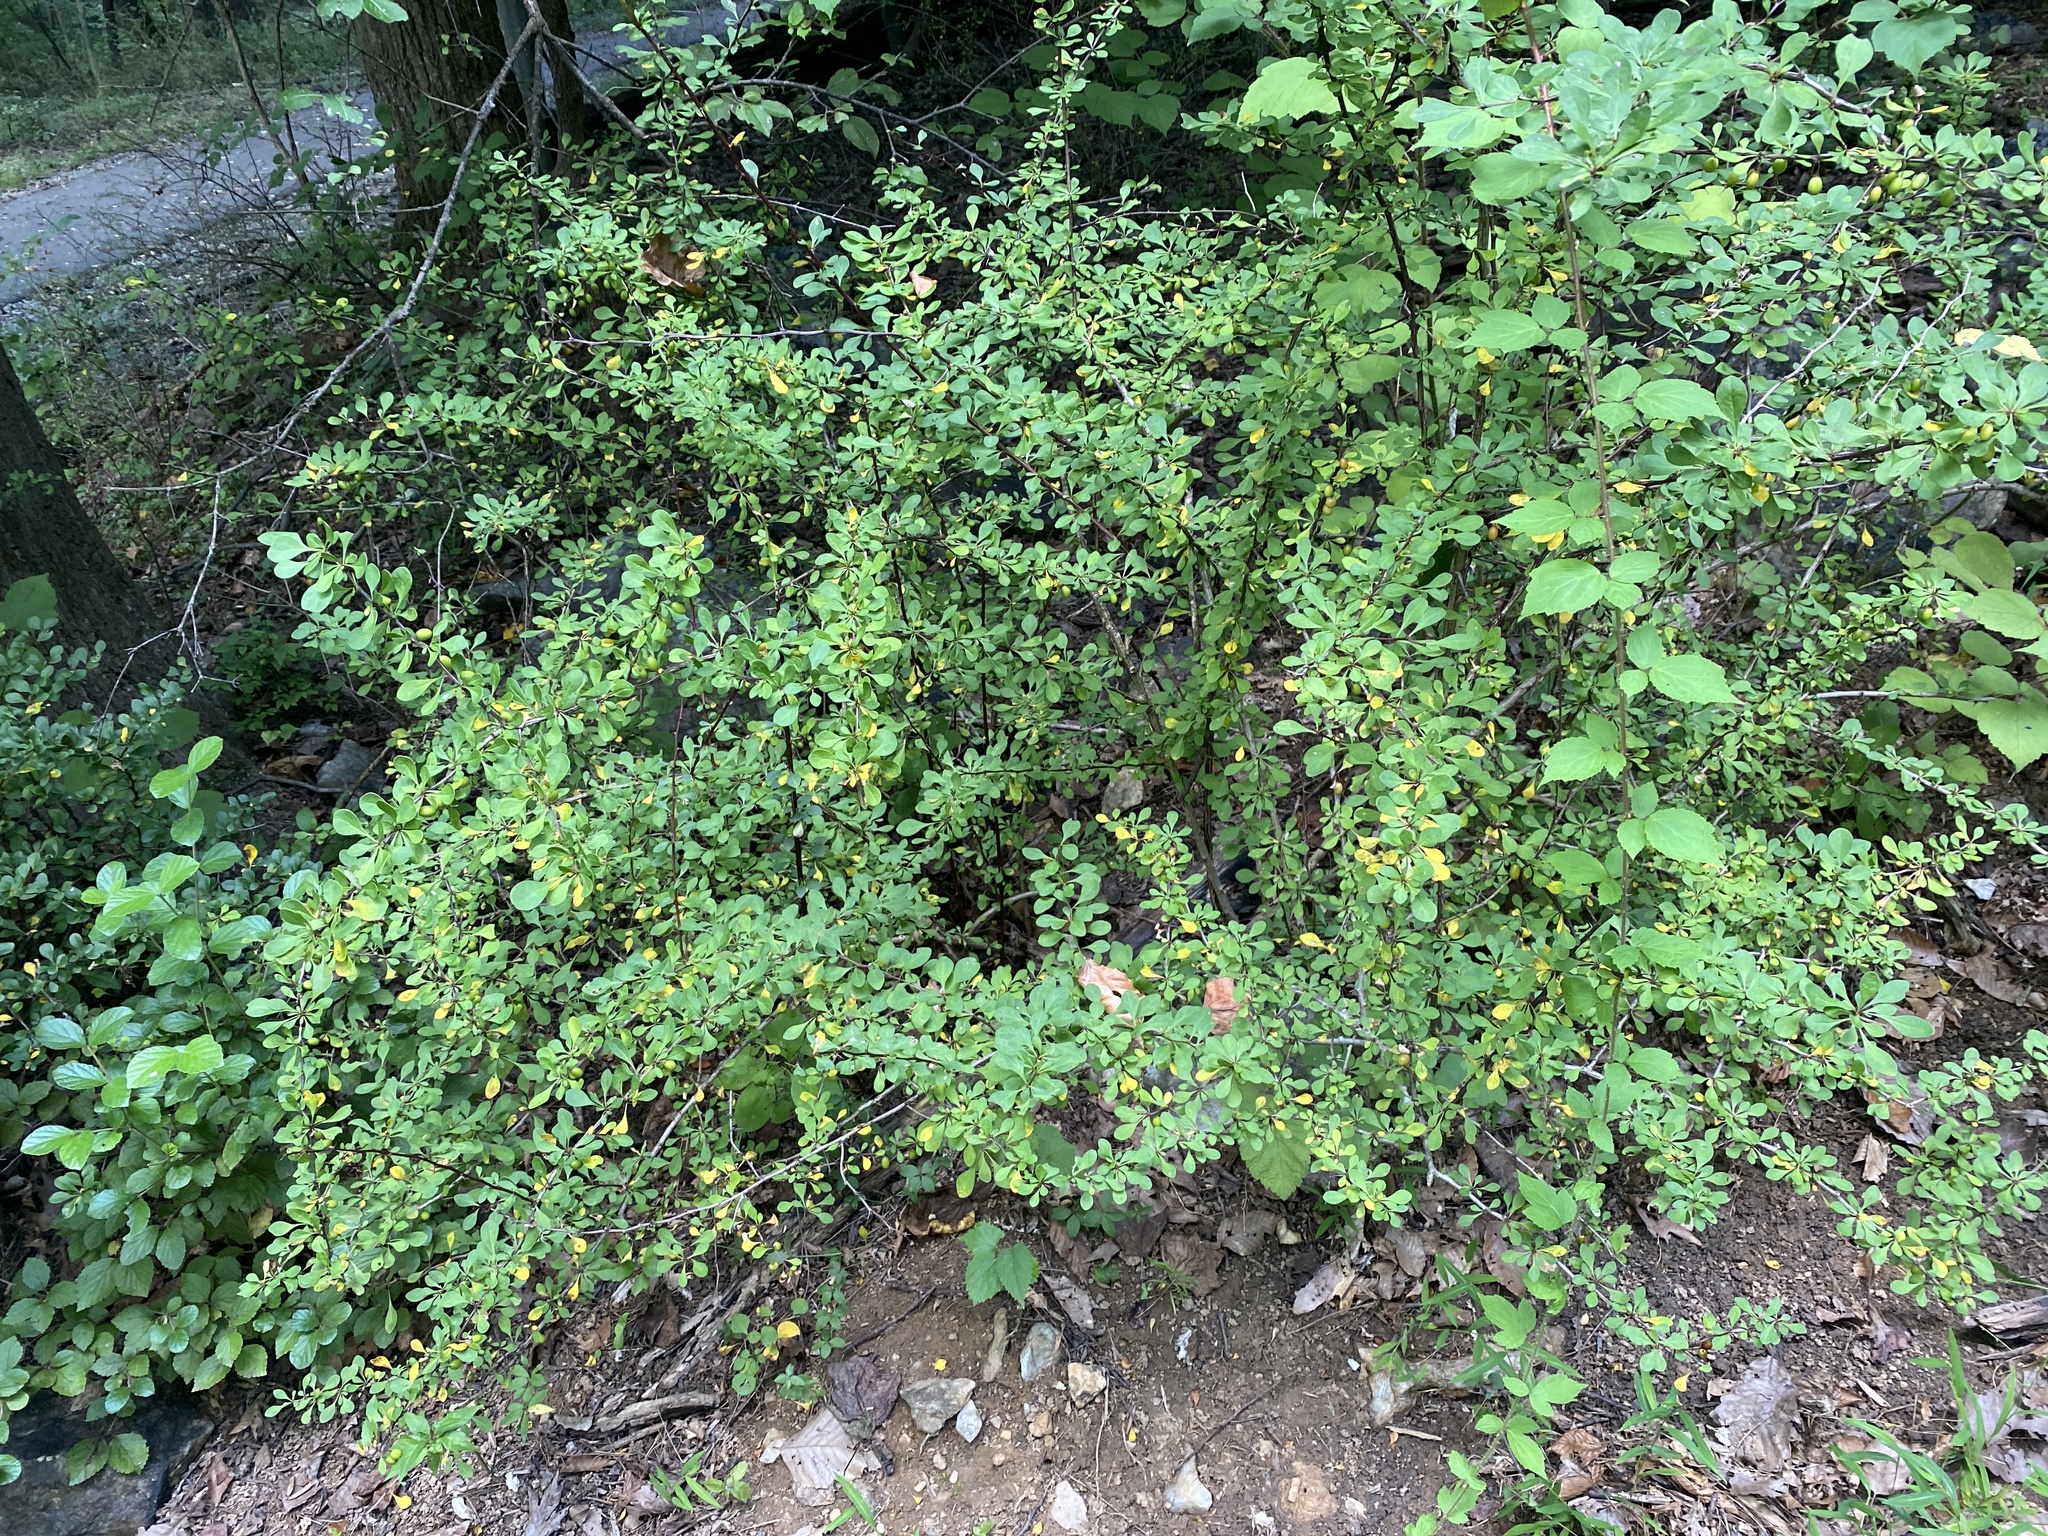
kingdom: Plantae
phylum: Tracheophyta
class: Magnoliopsida
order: Ranunculales
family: Berberidaceae
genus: Berberis
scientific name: Berberis thunbergii
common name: Japanese barberry
